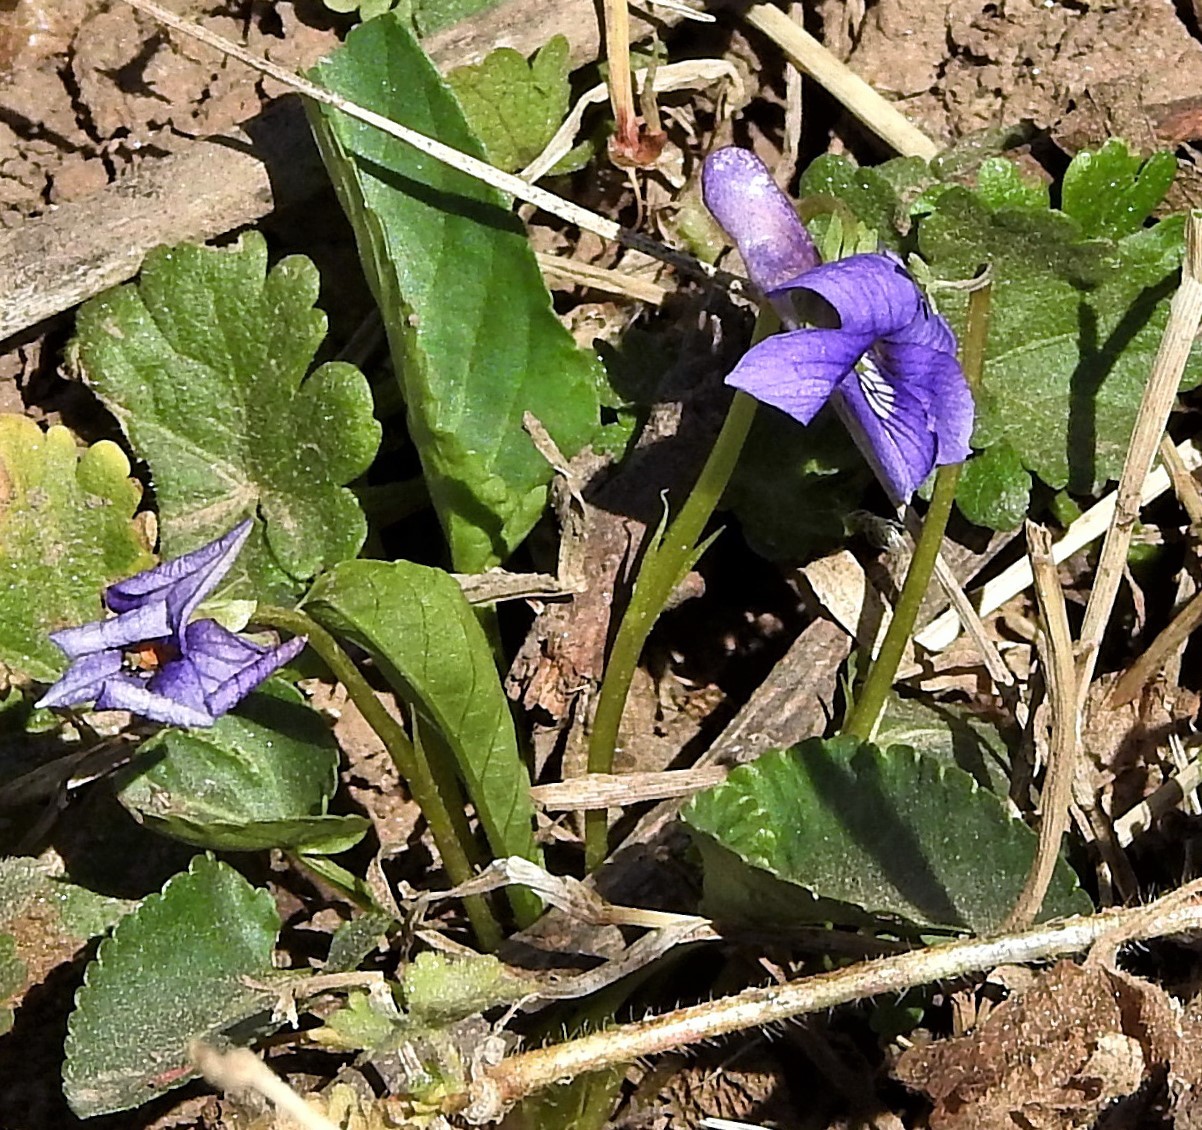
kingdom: Plantae
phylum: Tracheophyta
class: Magnoliopsida
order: Malpighiales
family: Violaceae
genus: Viola
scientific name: Viola odorata
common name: Sweet violet
